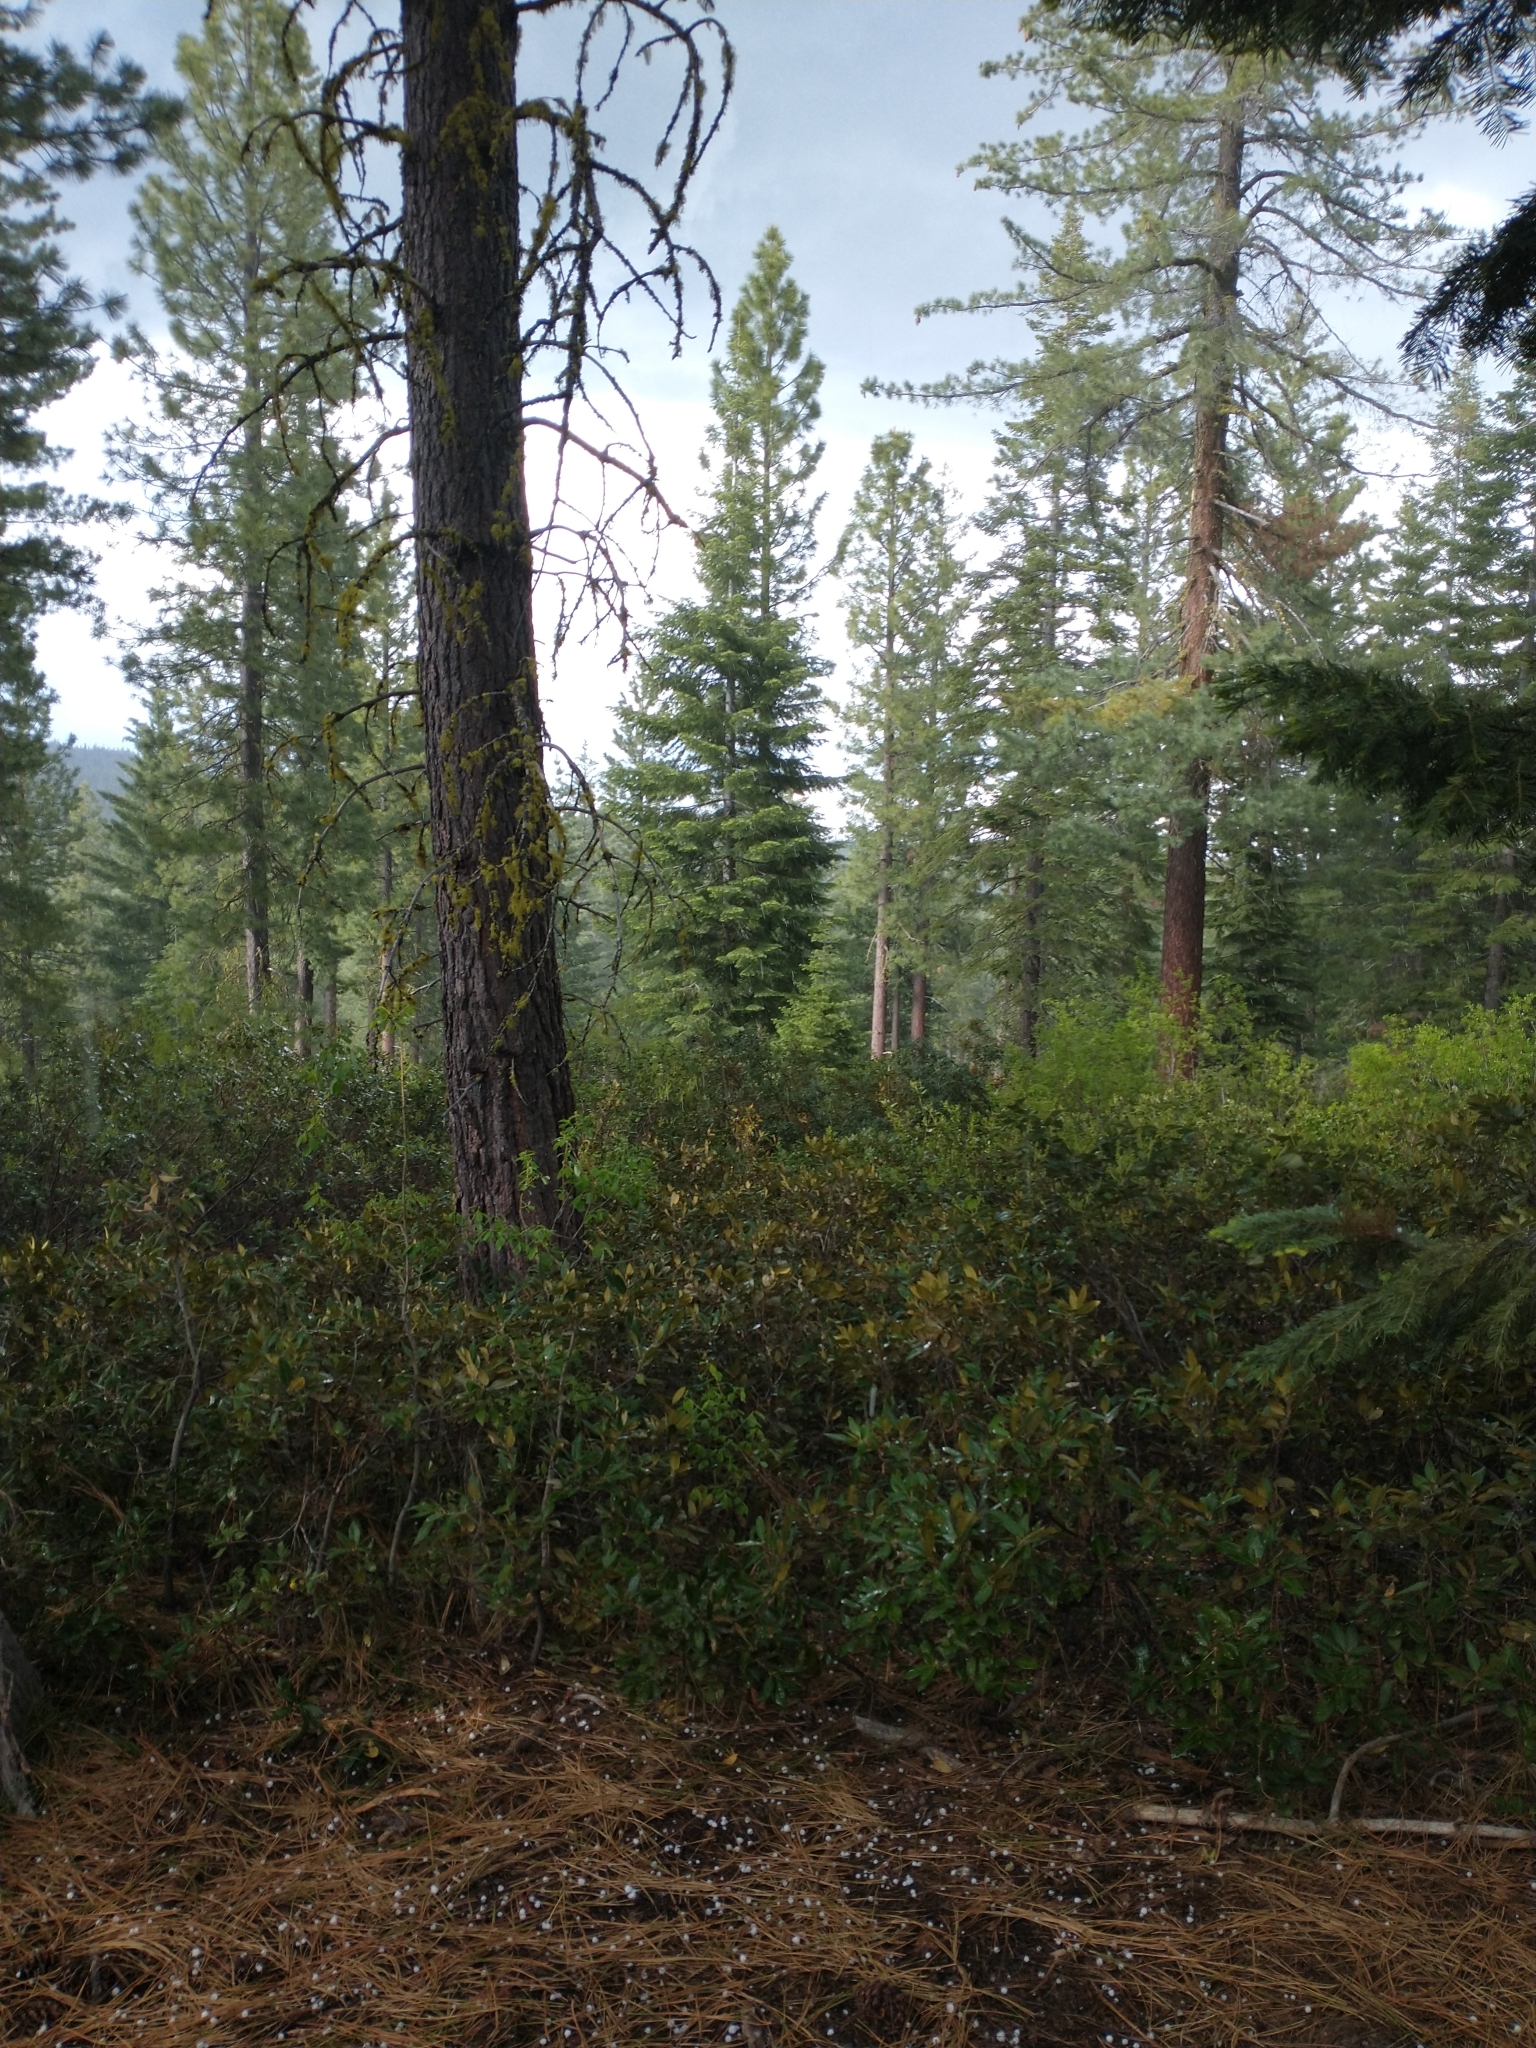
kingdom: Plantae
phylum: Tracheophyta
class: Magnoliopsida
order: Fagales
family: Fagaceae
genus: Chrysolepis
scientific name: Chrysolepis chrysophylla
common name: Giant chinquapin
